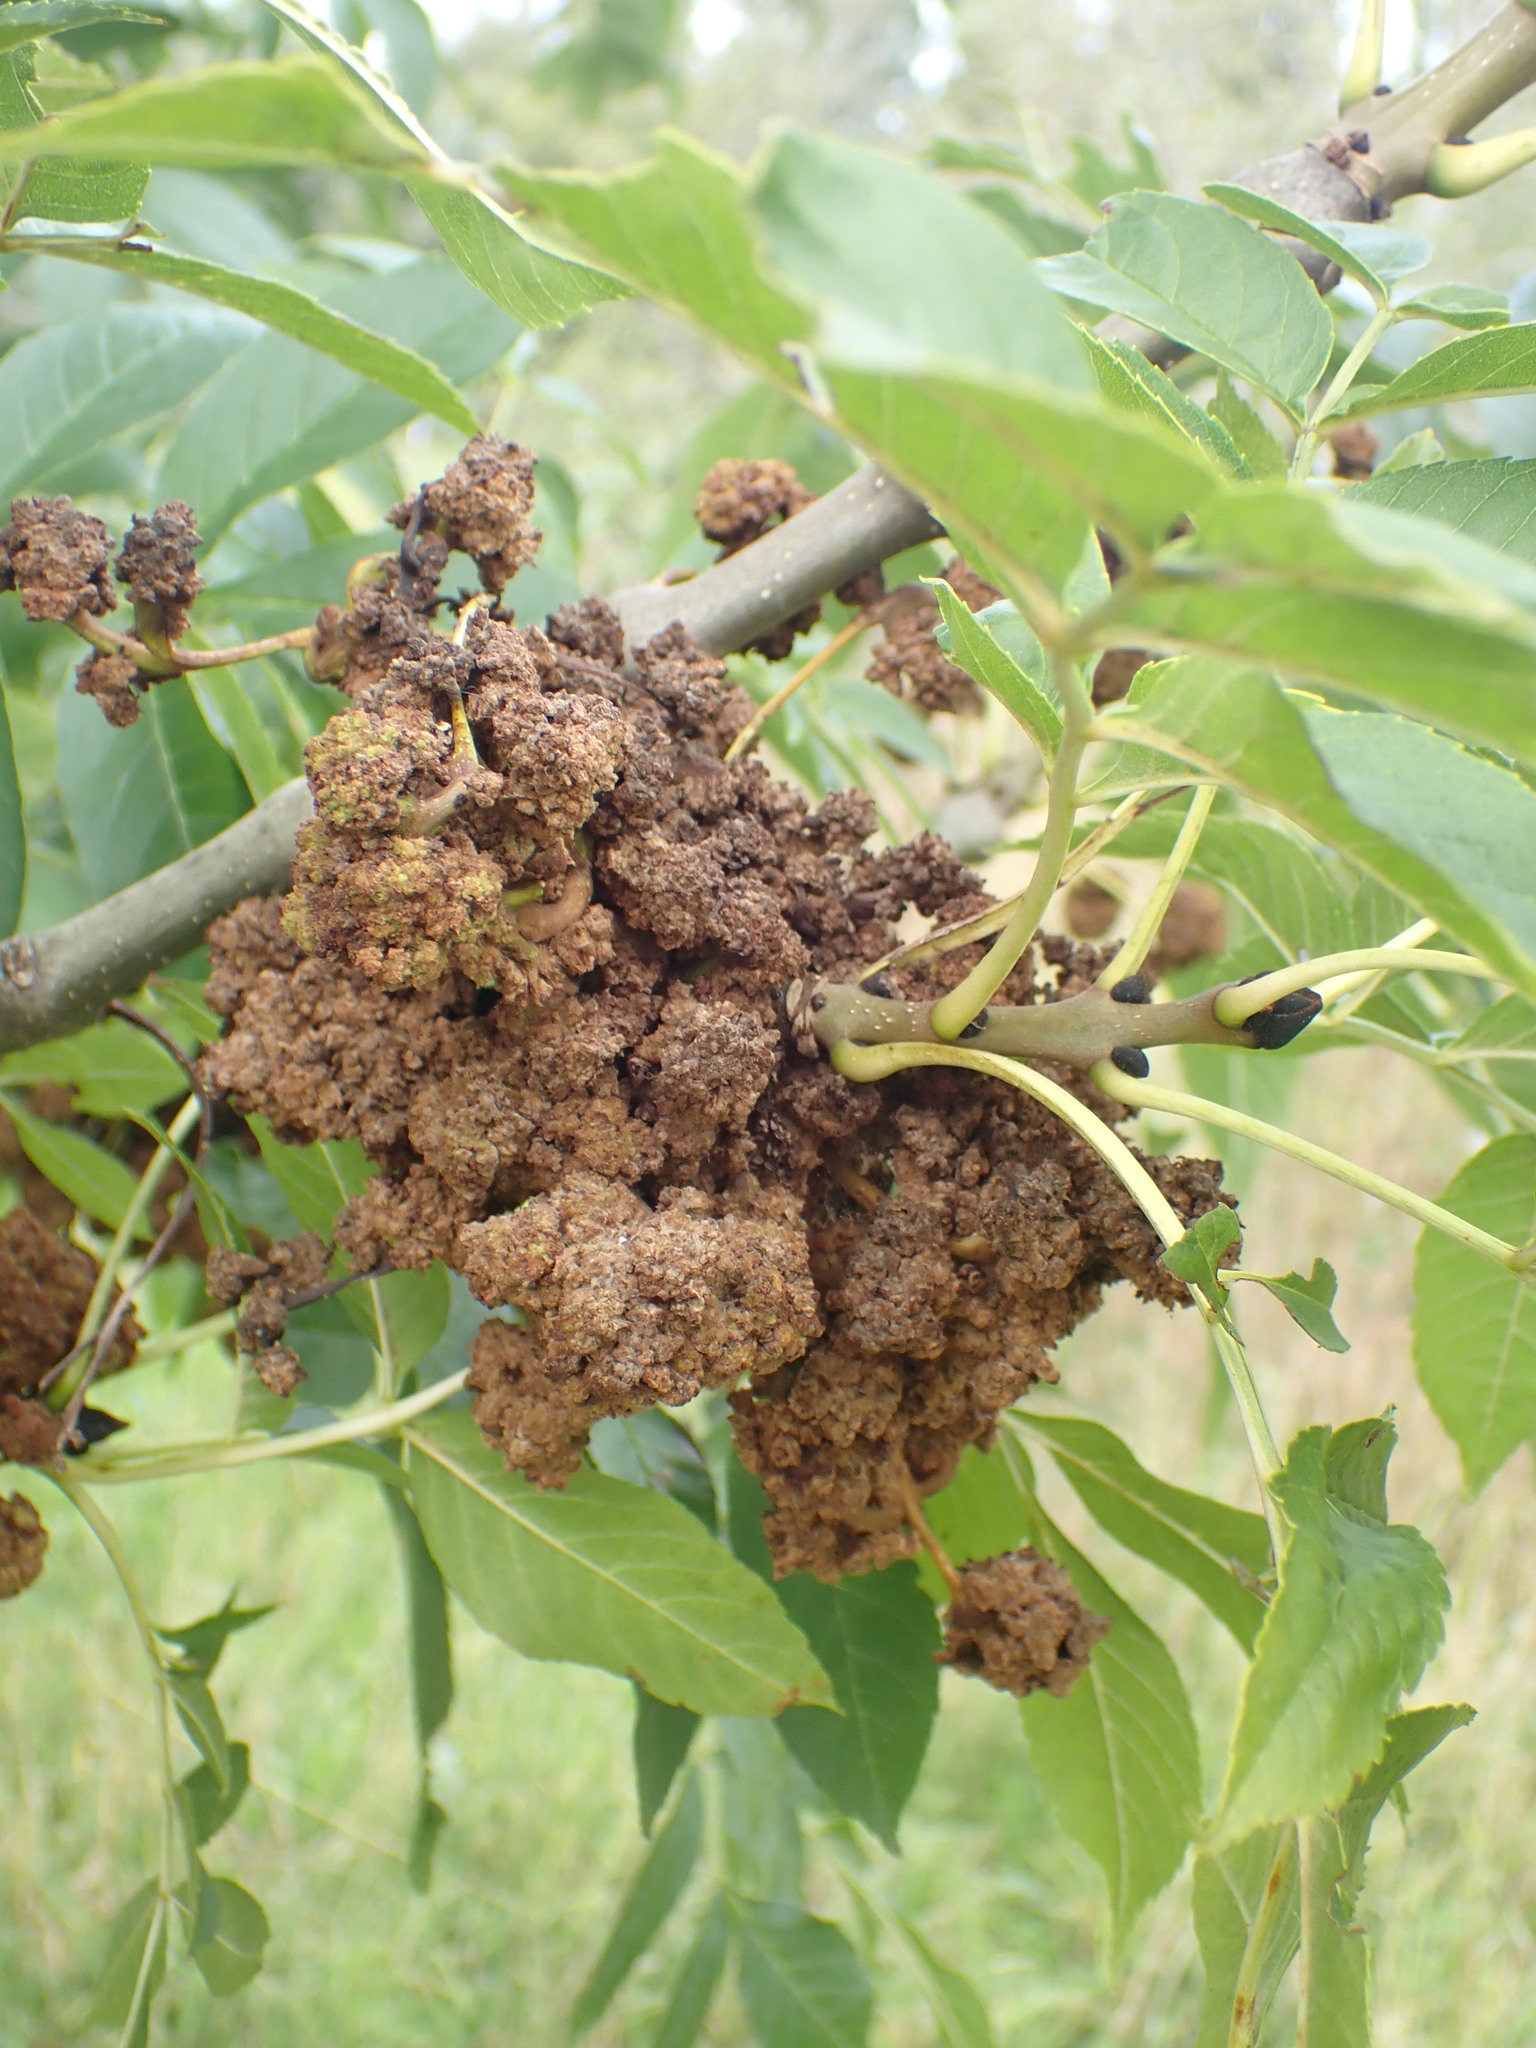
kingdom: Plantae
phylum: Tracheophyta
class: Magnoliopsida
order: Lamiales
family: Oleaceae
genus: Fraxinus
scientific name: Fraxinus excelsior
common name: European ash
